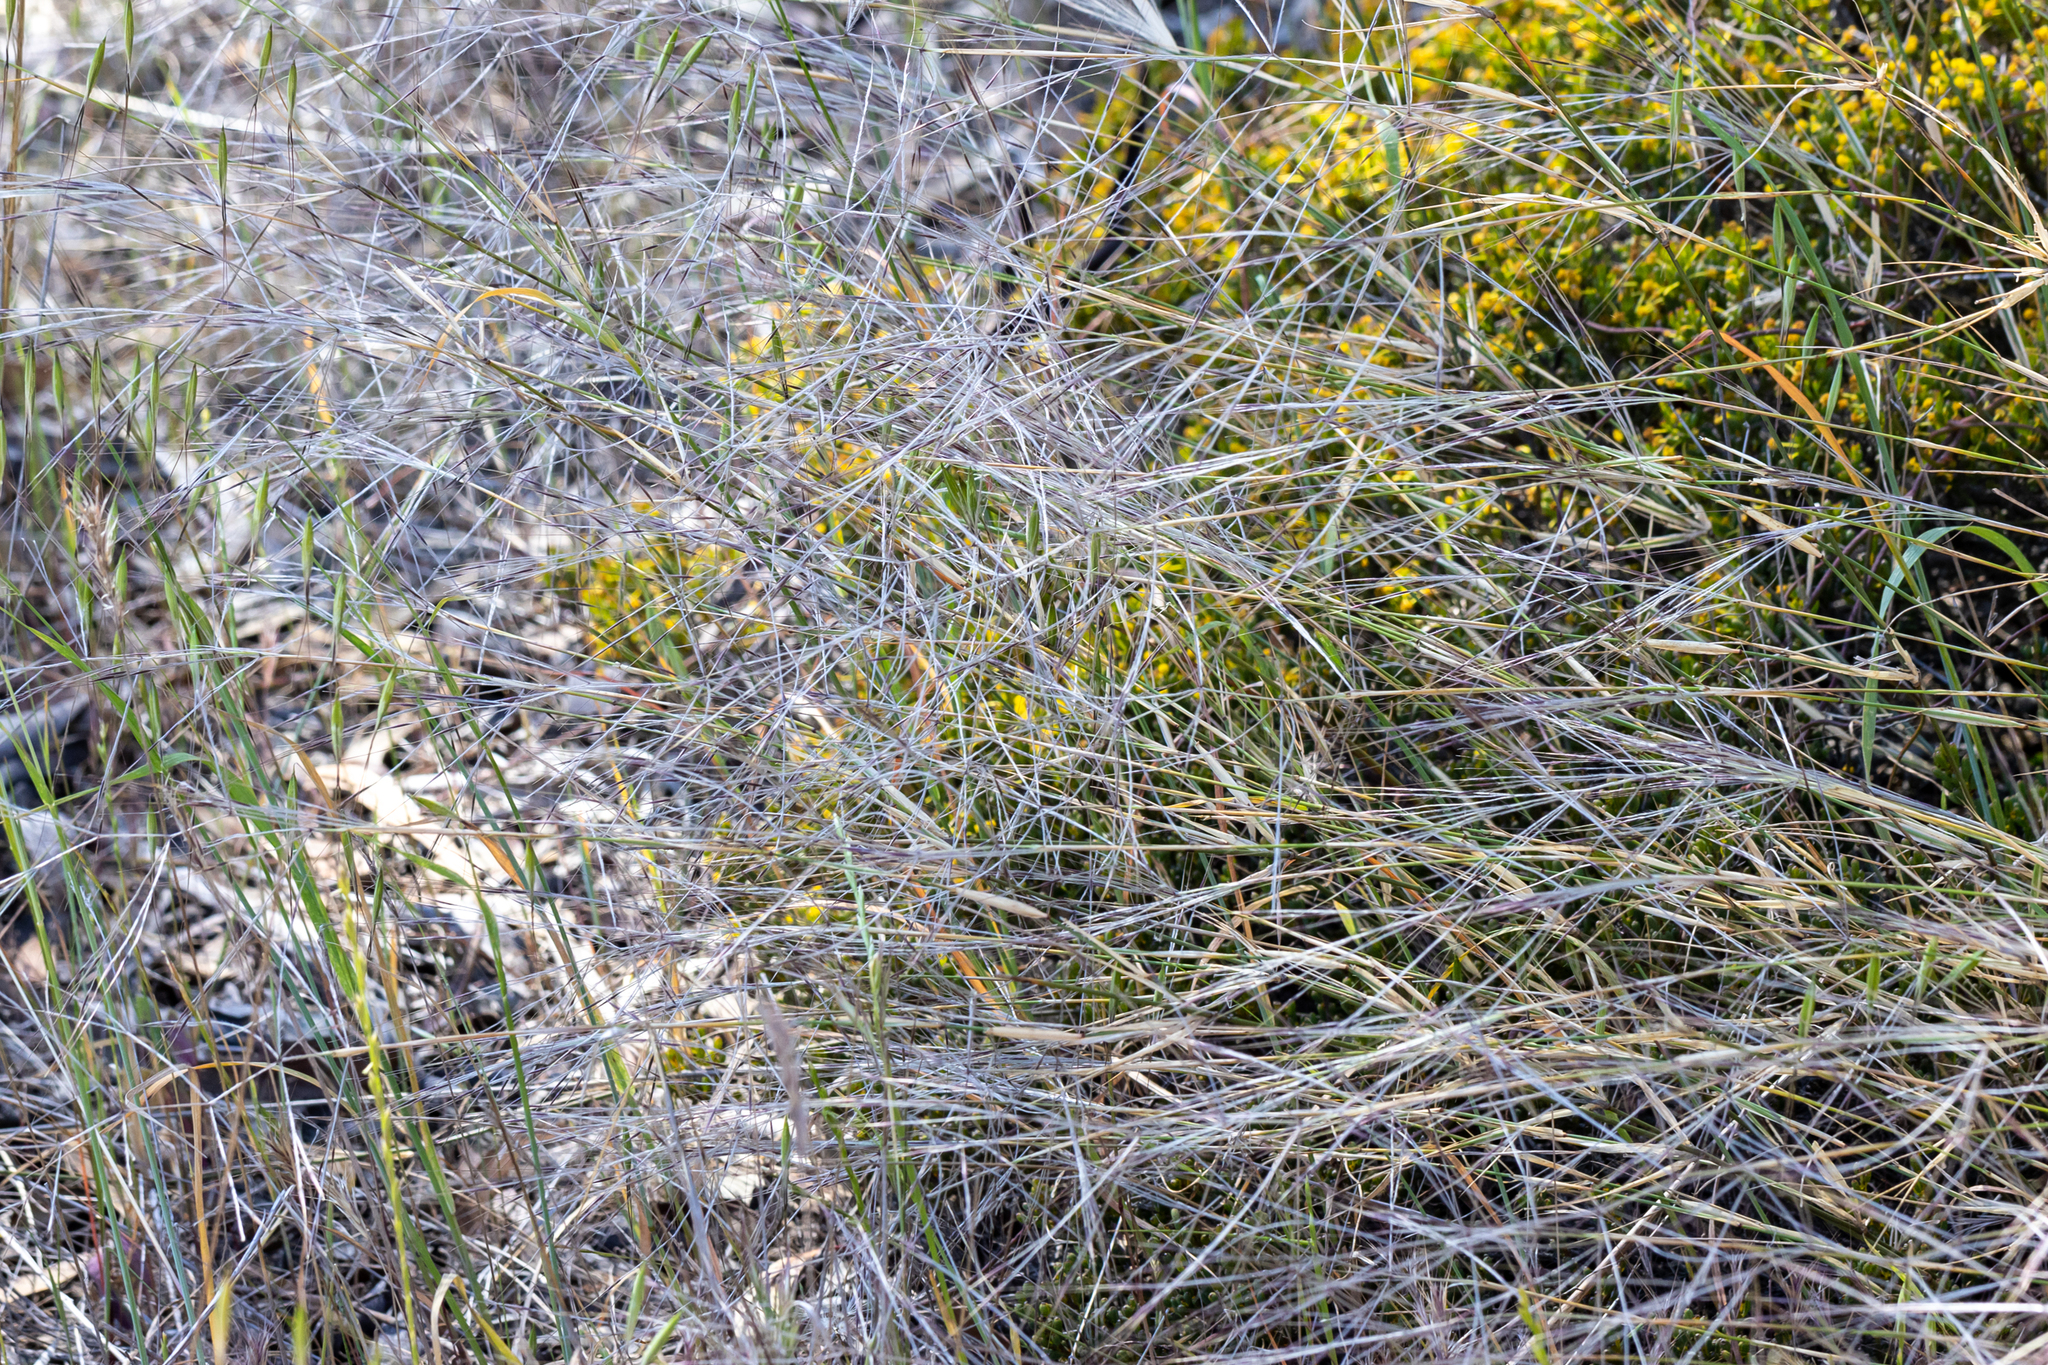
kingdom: Plantae
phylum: Tracheophyta
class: Liliopsida
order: Poales
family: Poaceae
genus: Austrostipa
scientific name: Austrostipa elegantissima
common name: Feather spear grass
